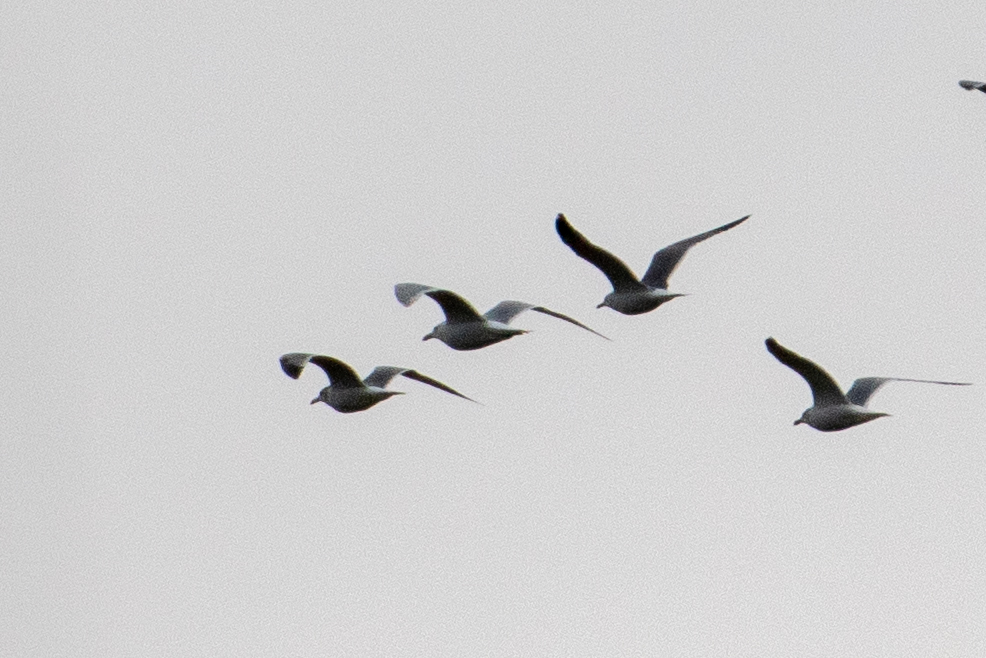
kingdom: Animalia
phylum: Chordata
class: Aves
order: Charadriiformes
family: Laridae
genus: Larus
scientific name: Larus
